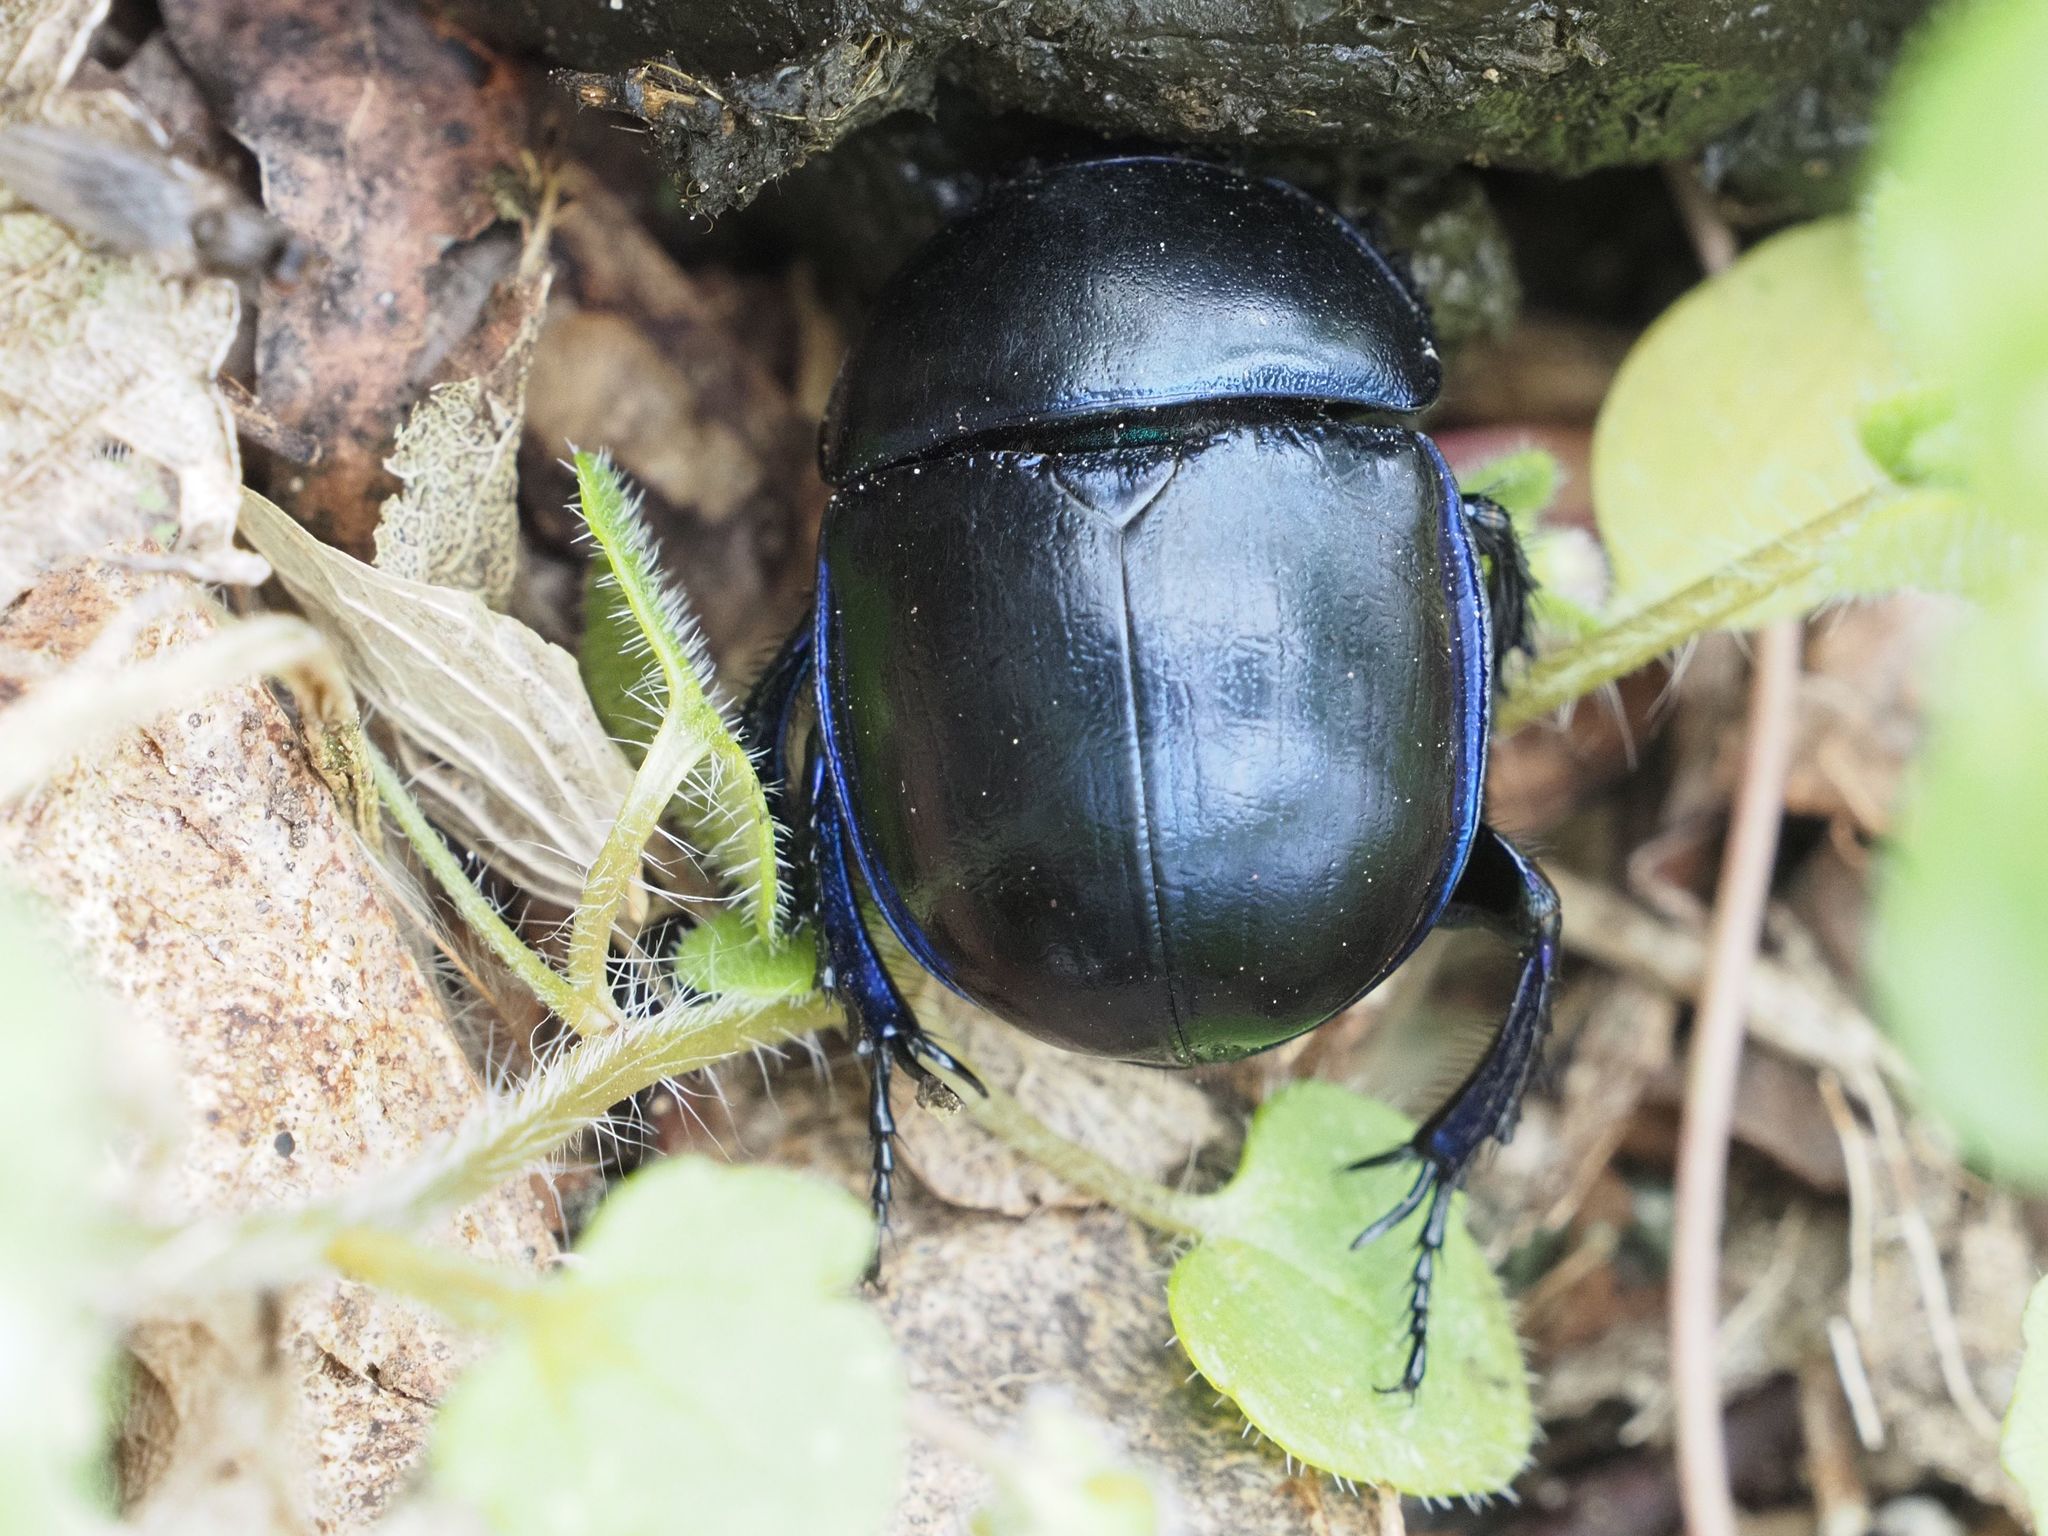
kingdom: Animalia
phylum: Arthropoda
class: Insecta
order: Coleoptera
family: Geotrupidae
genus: Trypocopris
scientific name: Trypocopris vernalis
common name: Spring dumbledor
